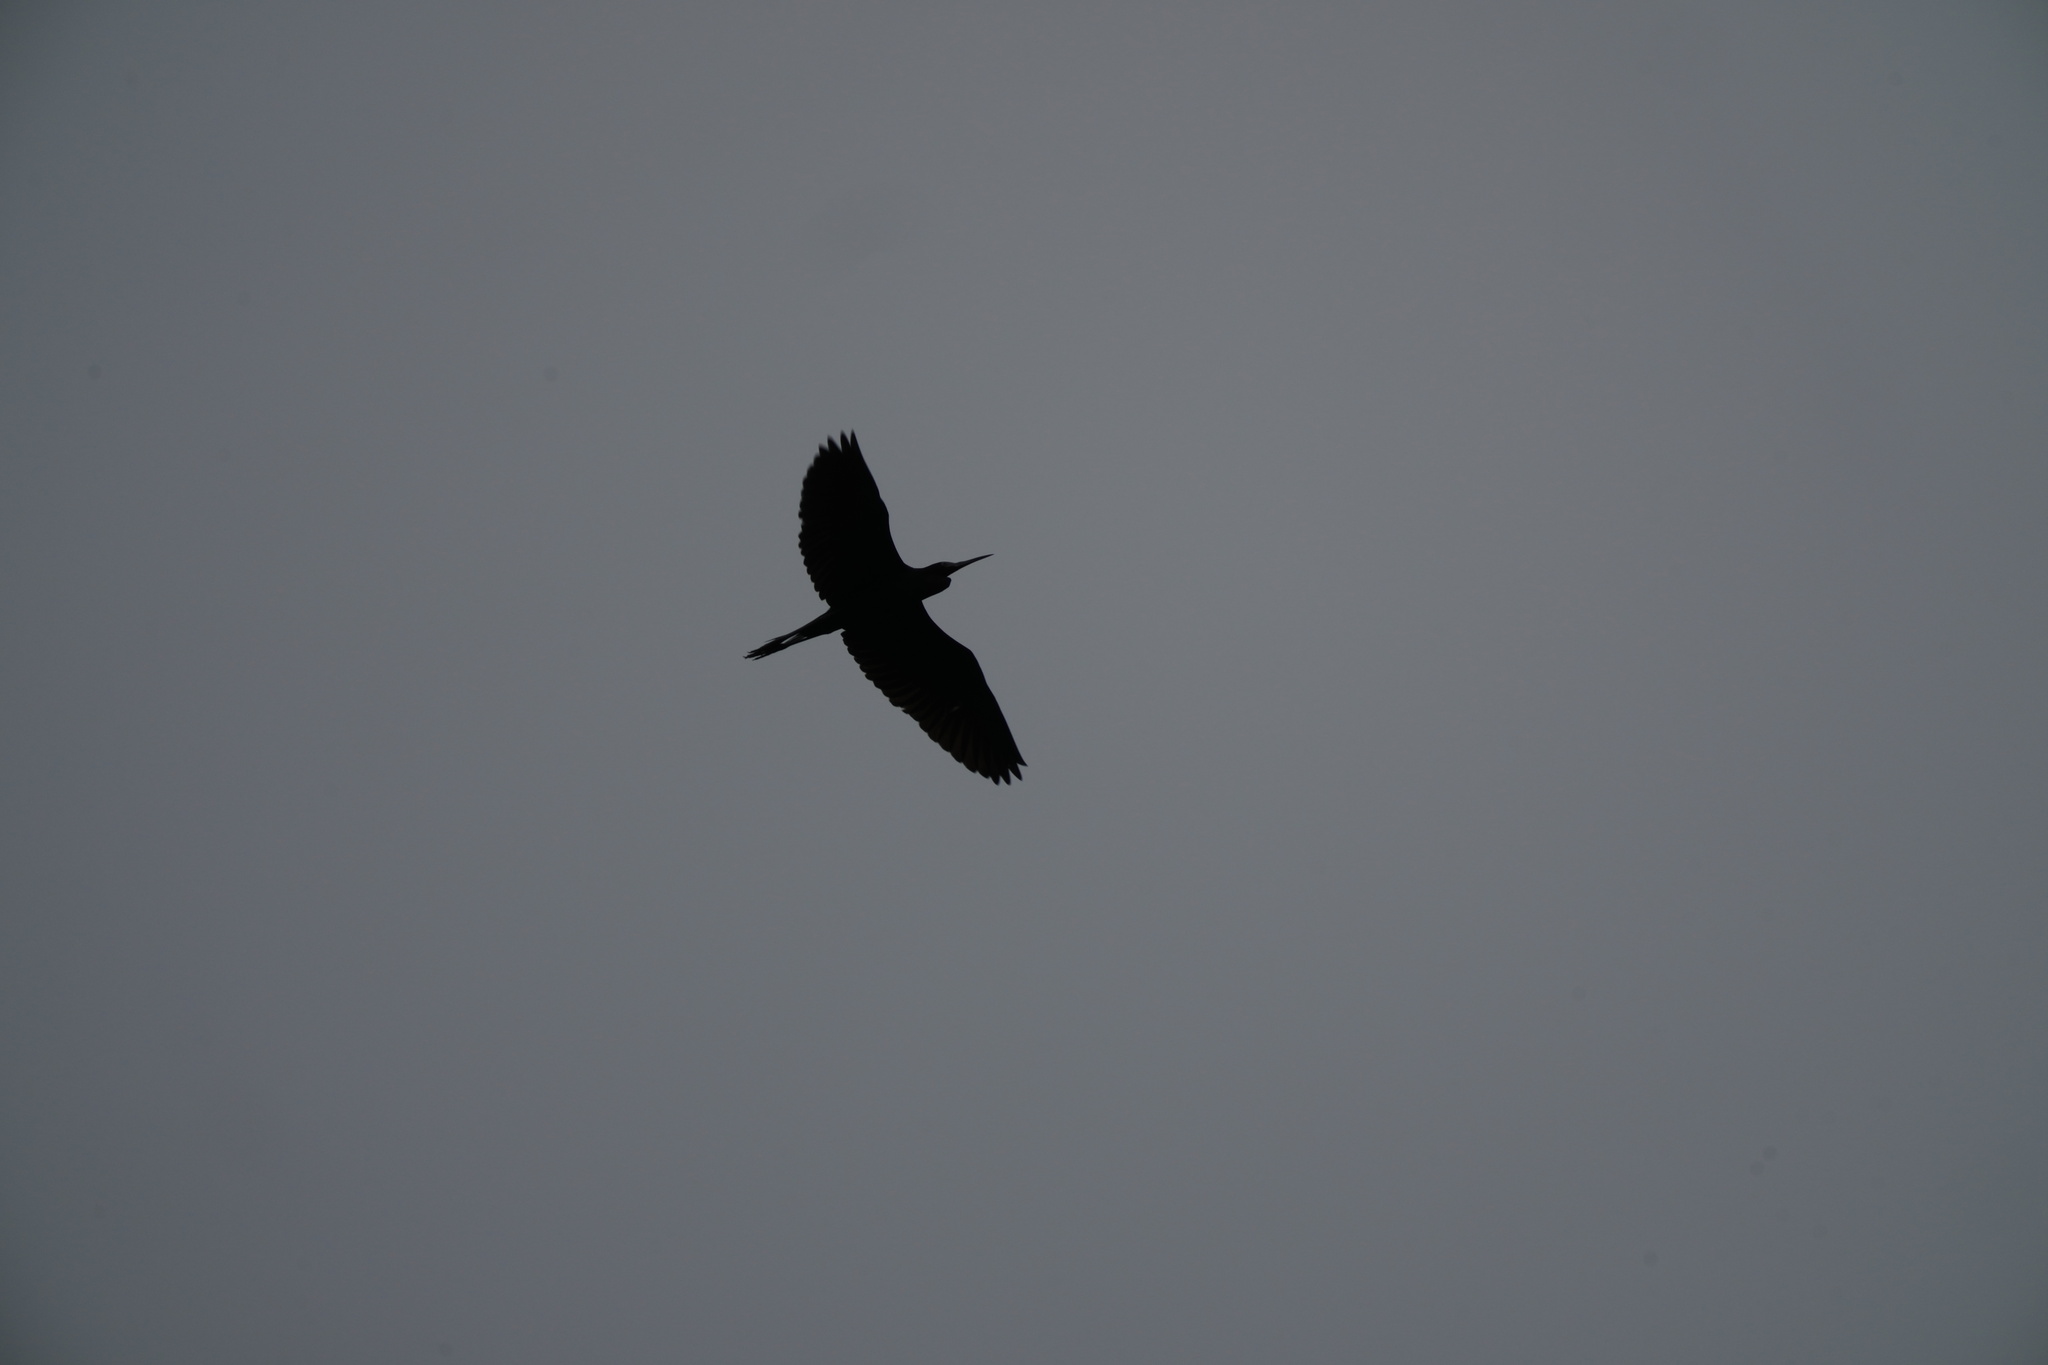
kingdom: Animalia
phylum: Chordata
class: Aves
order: Pelecaniformes
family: Ardeidae
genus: Ardea
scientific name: Ardea herodias
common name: Great blue heron
